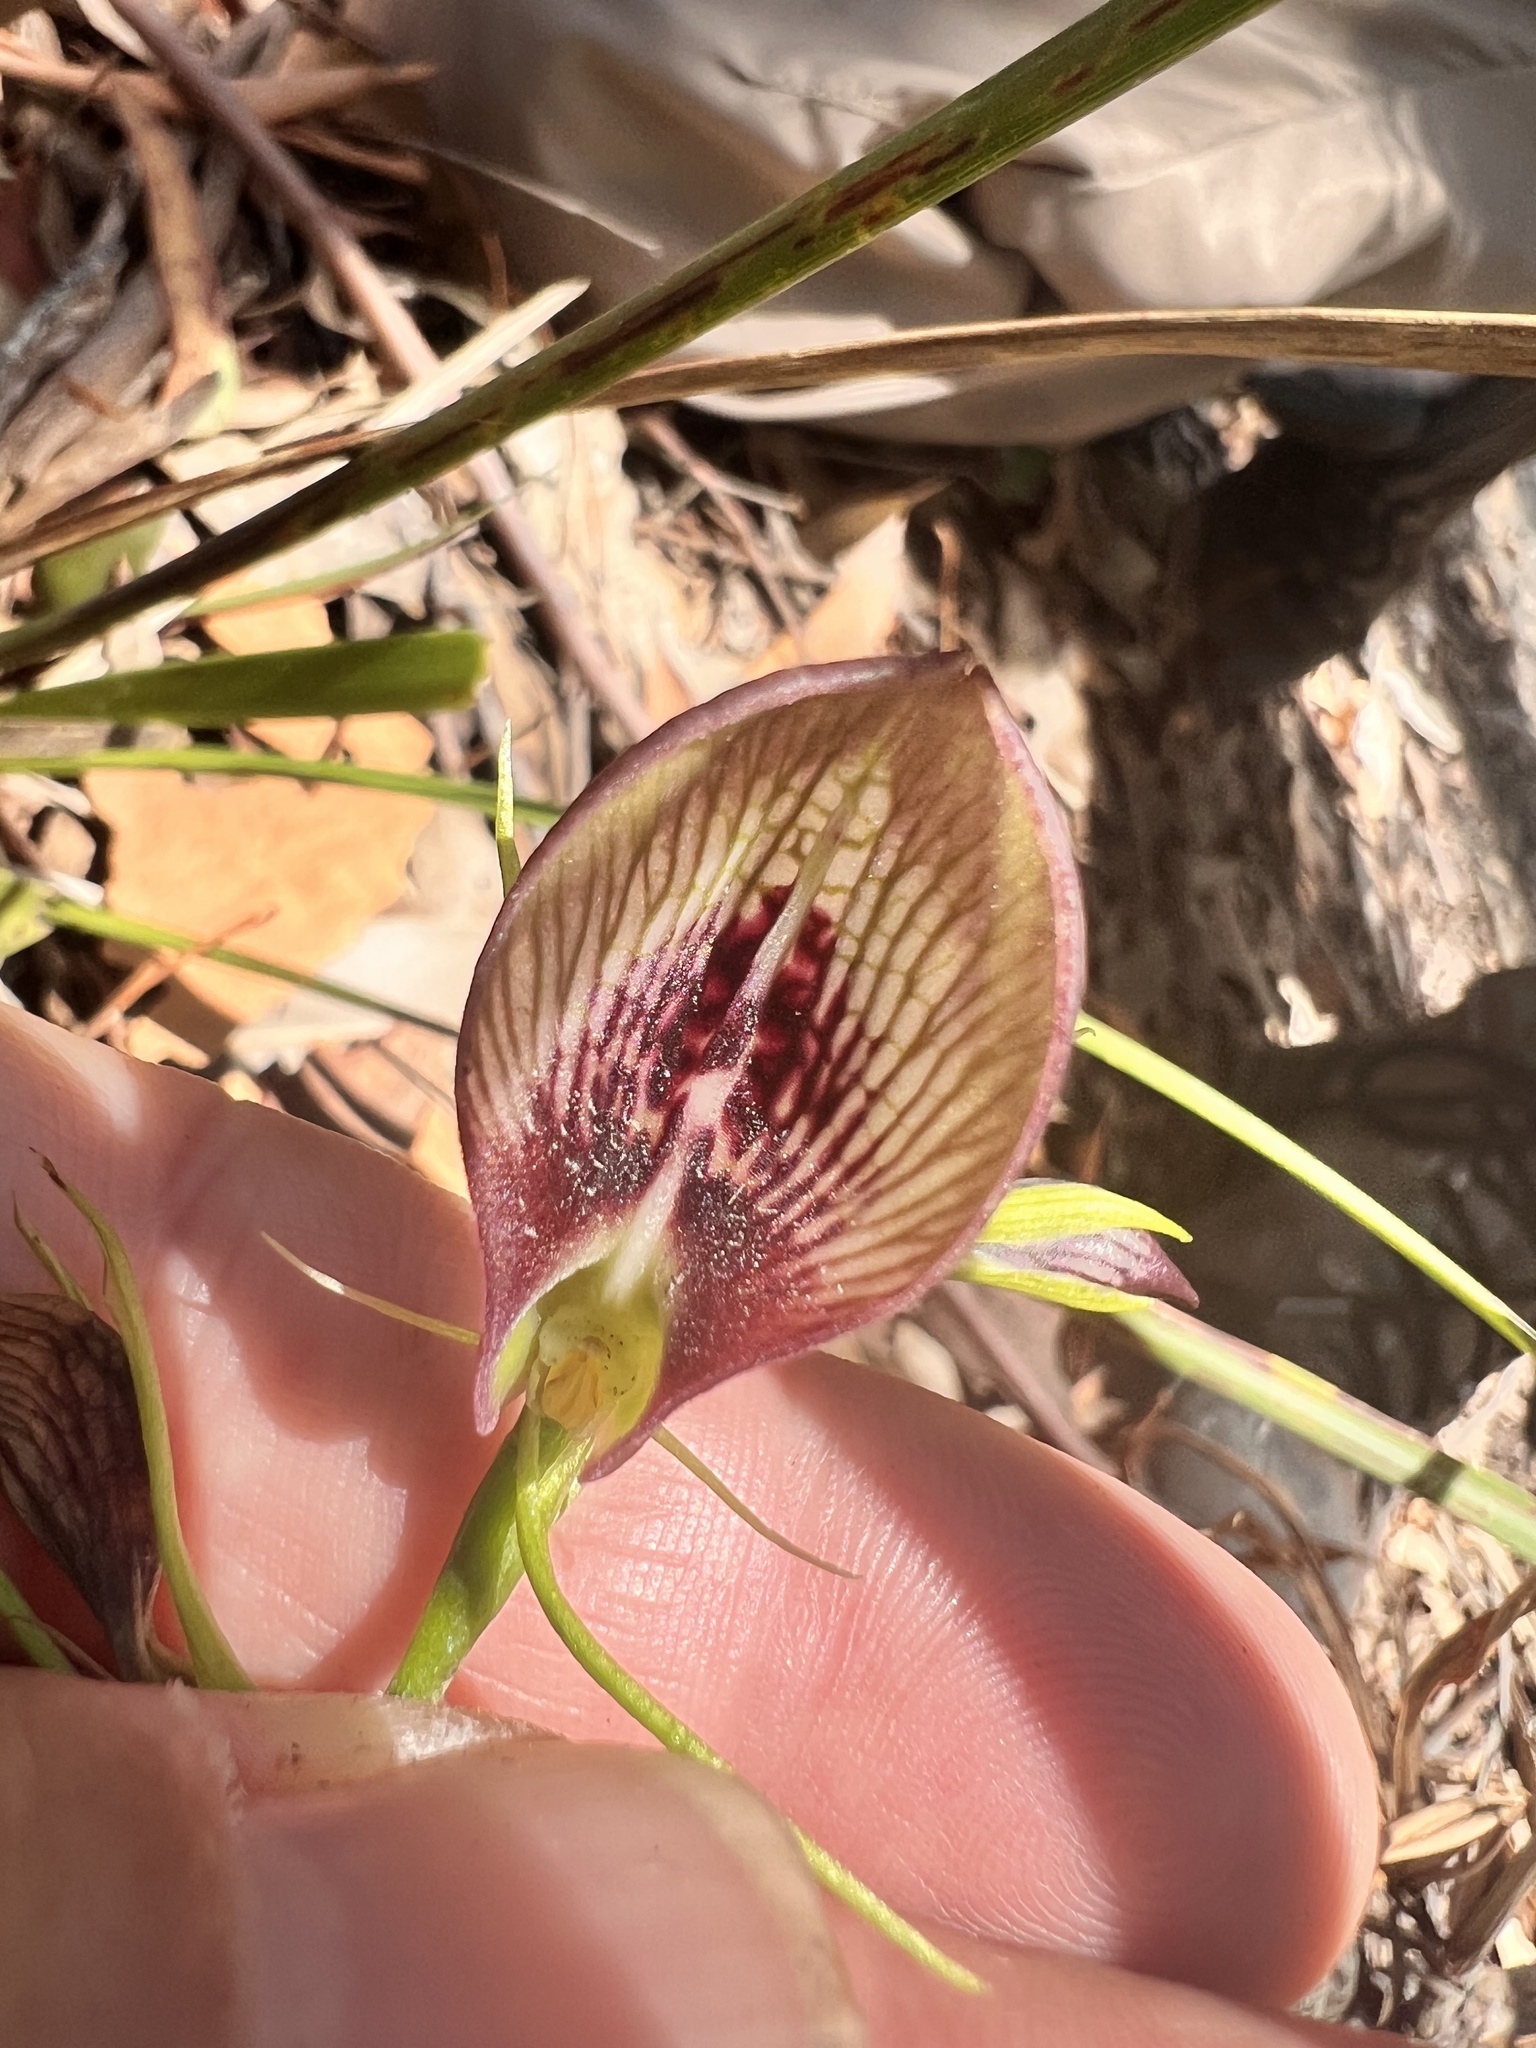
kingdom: Plantae
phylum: Tracheophyta
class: Liliopsida
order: Asparagales
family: Orchidaceae
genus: Cryptostylis
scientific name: Cryptostylis erecta
